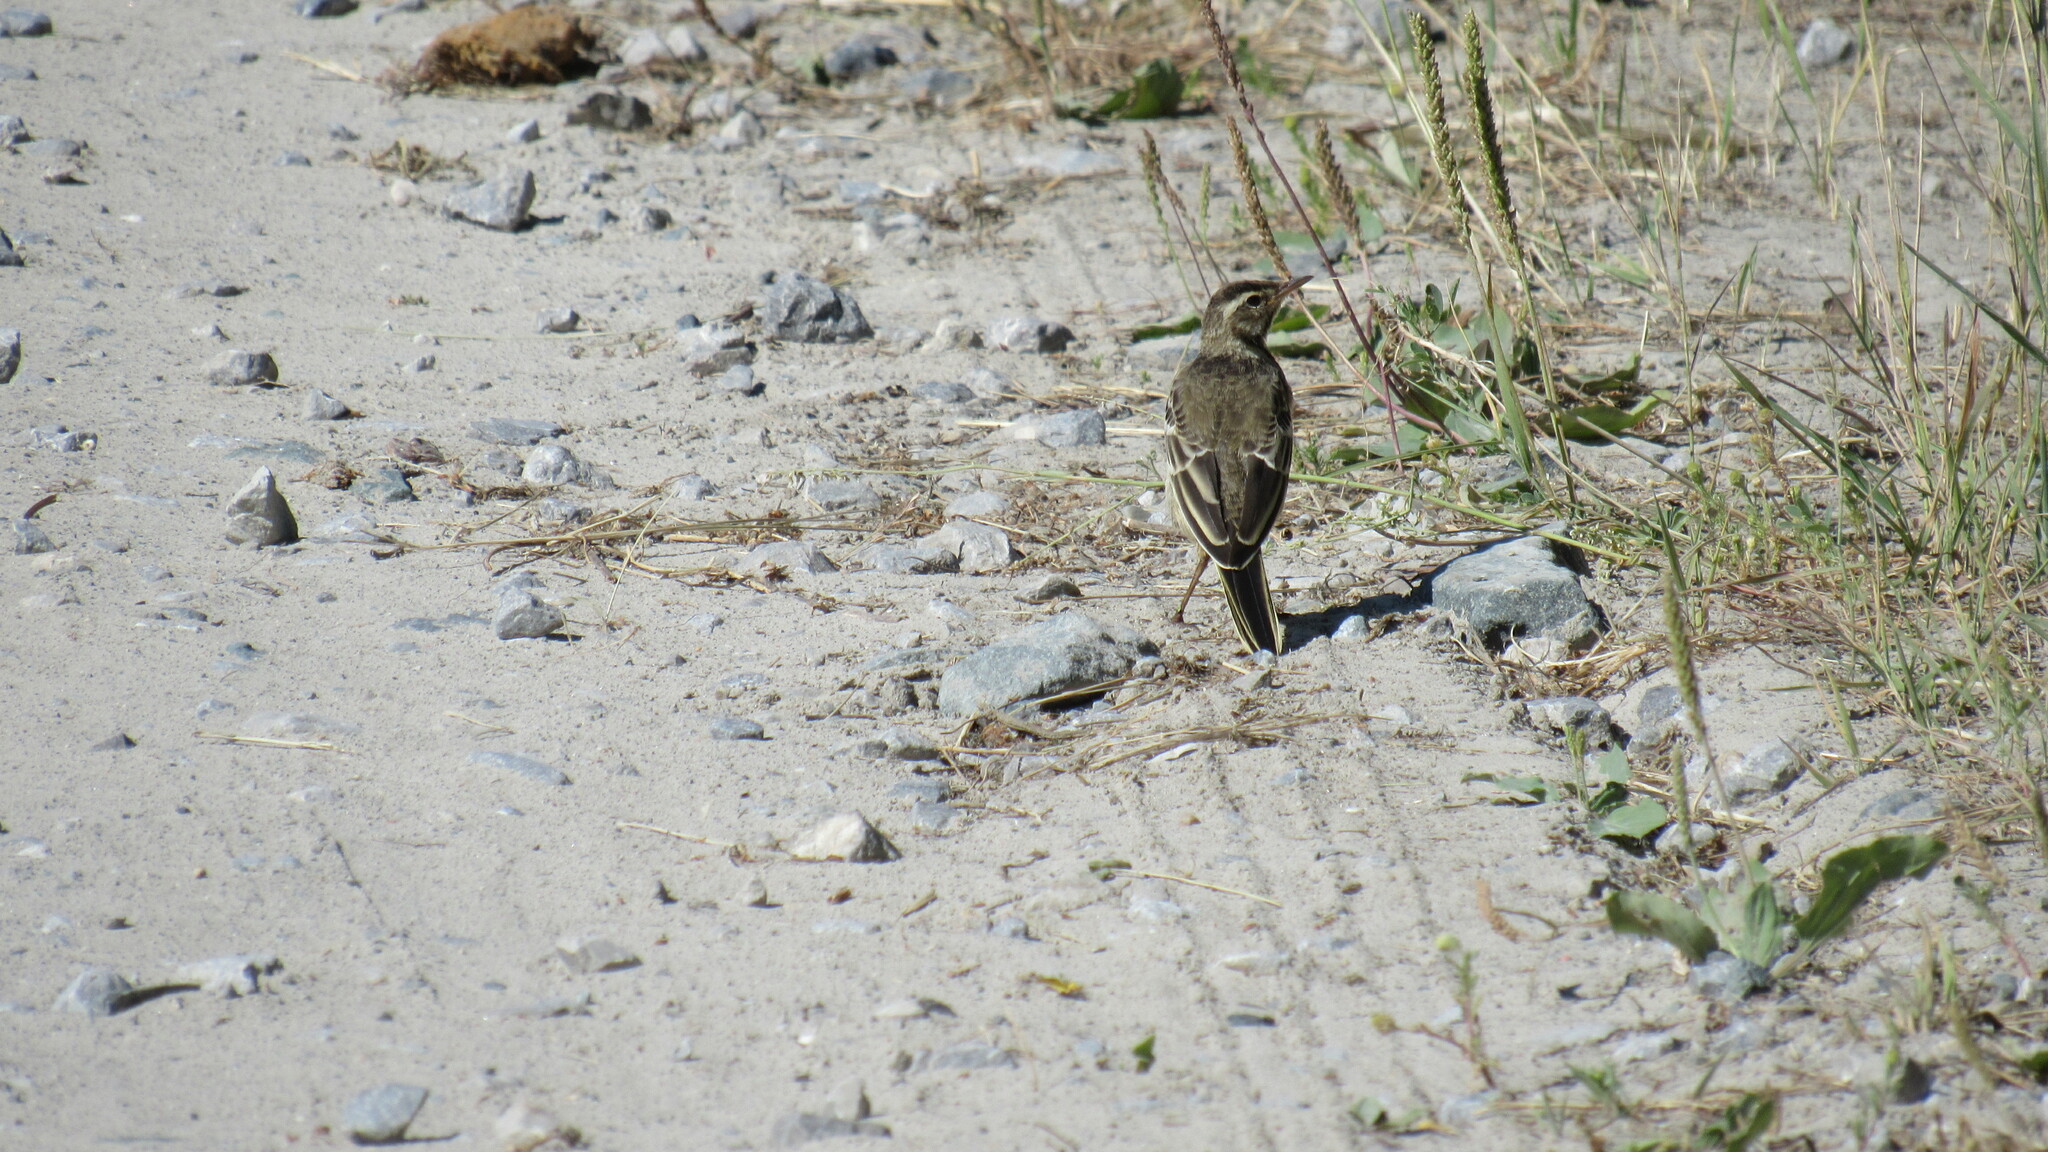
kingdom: Animalia
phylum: Chordata
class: Aves
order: Passeriformes
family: Motacillidae
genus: Motacilla
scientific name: Motacilla alba
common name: White wagtail
